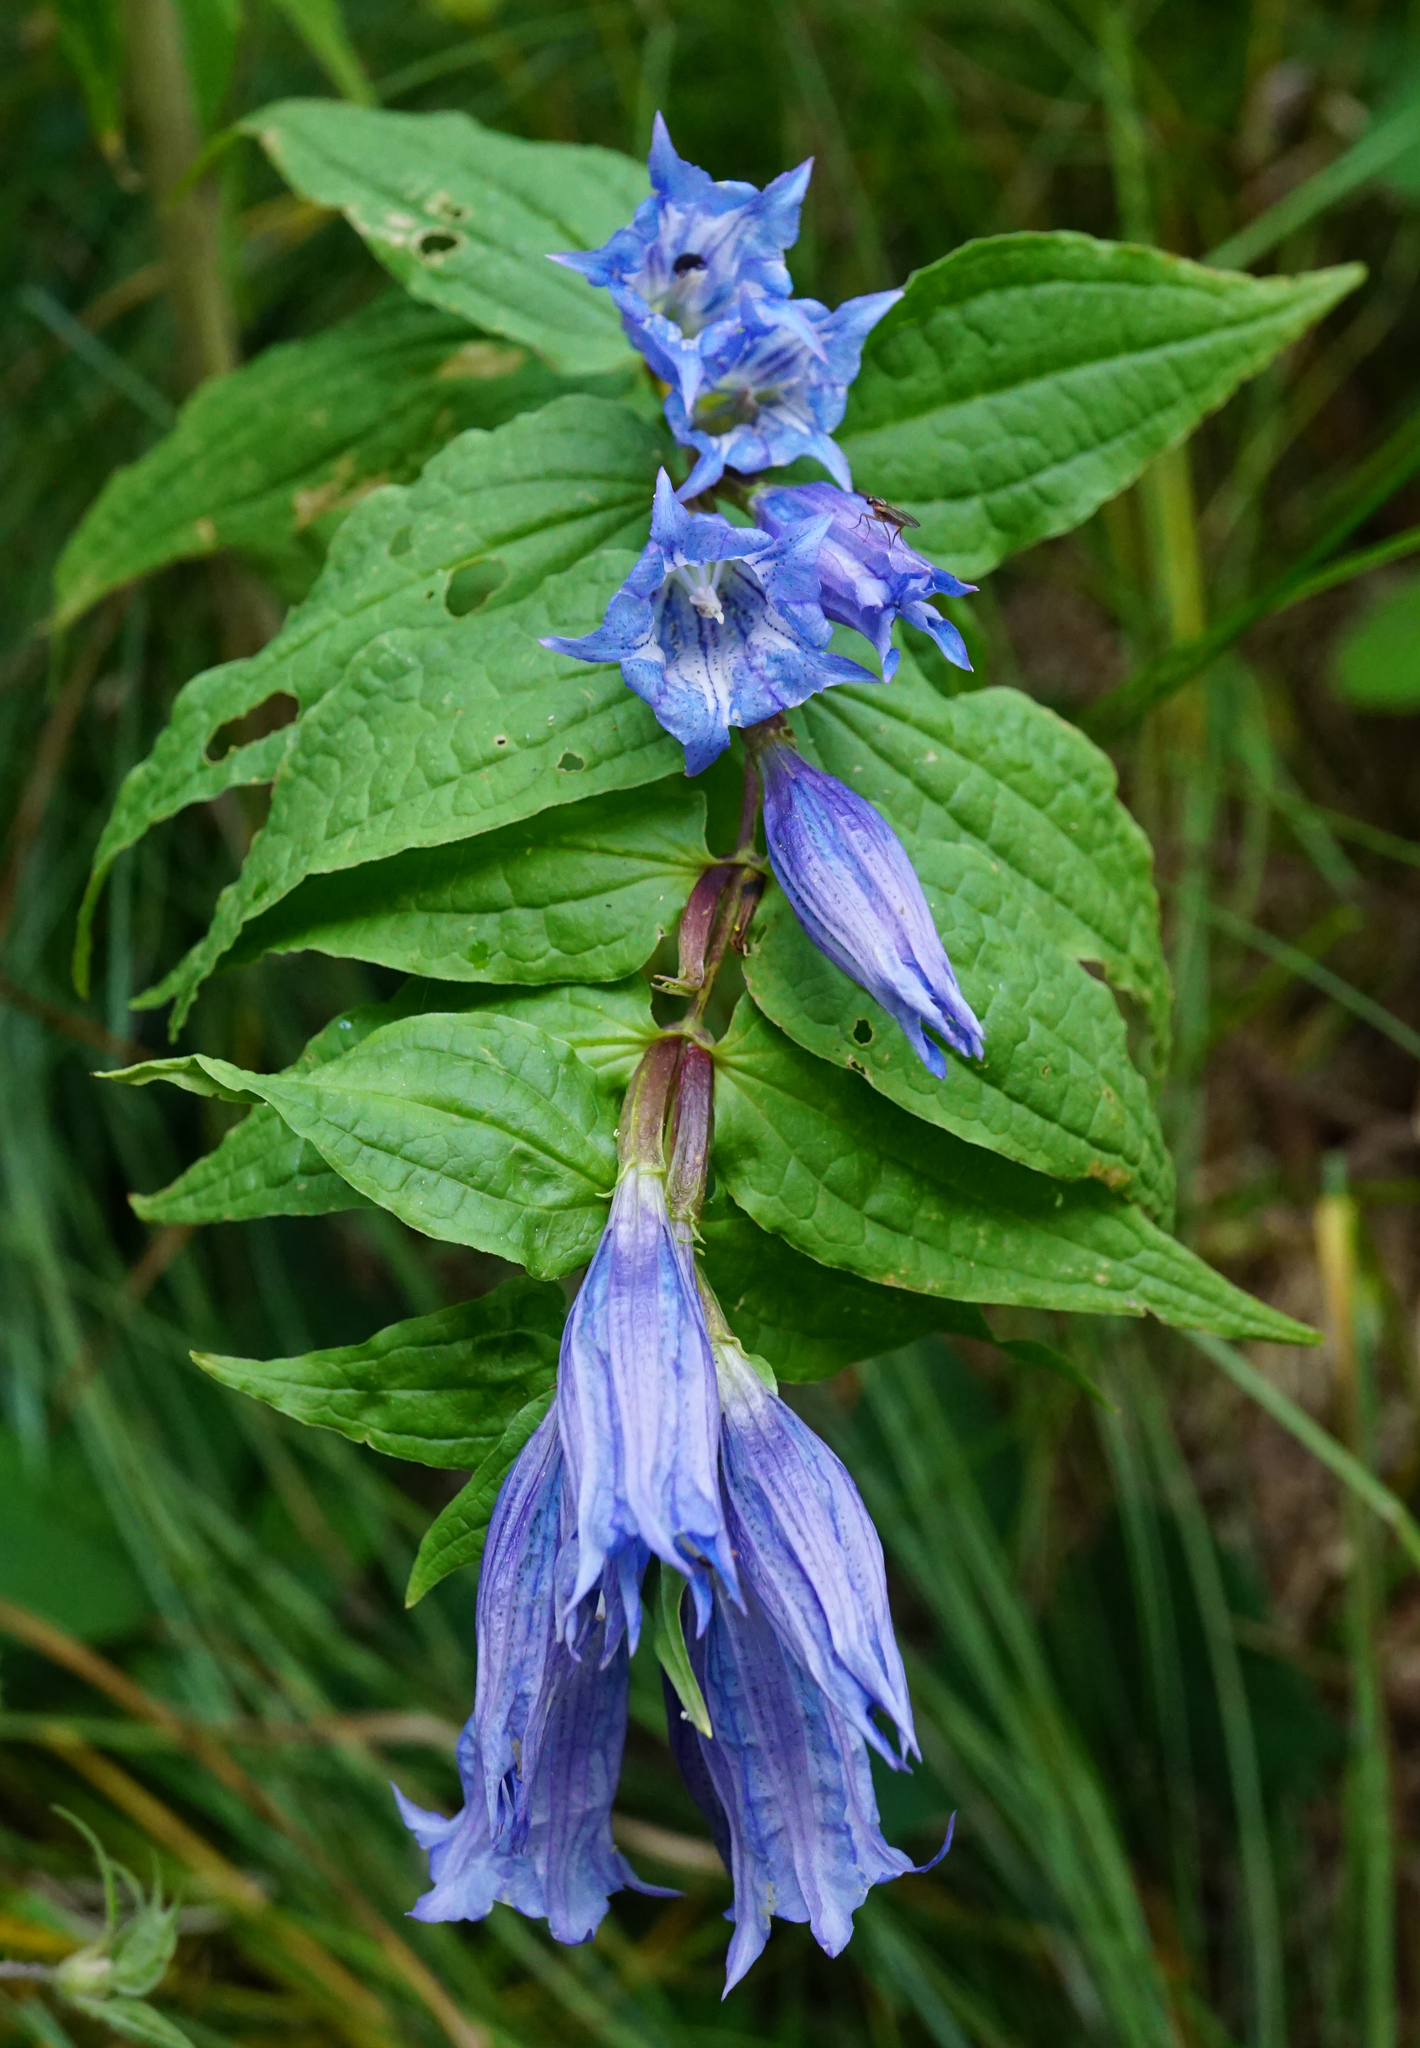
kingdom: Plantae
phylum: Tracheophyta
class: Magnoliopsida
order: Gentianales
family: Gentianaceae
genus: Gentiana
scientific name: Gentiana asclepiadea
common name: Willow gentian
